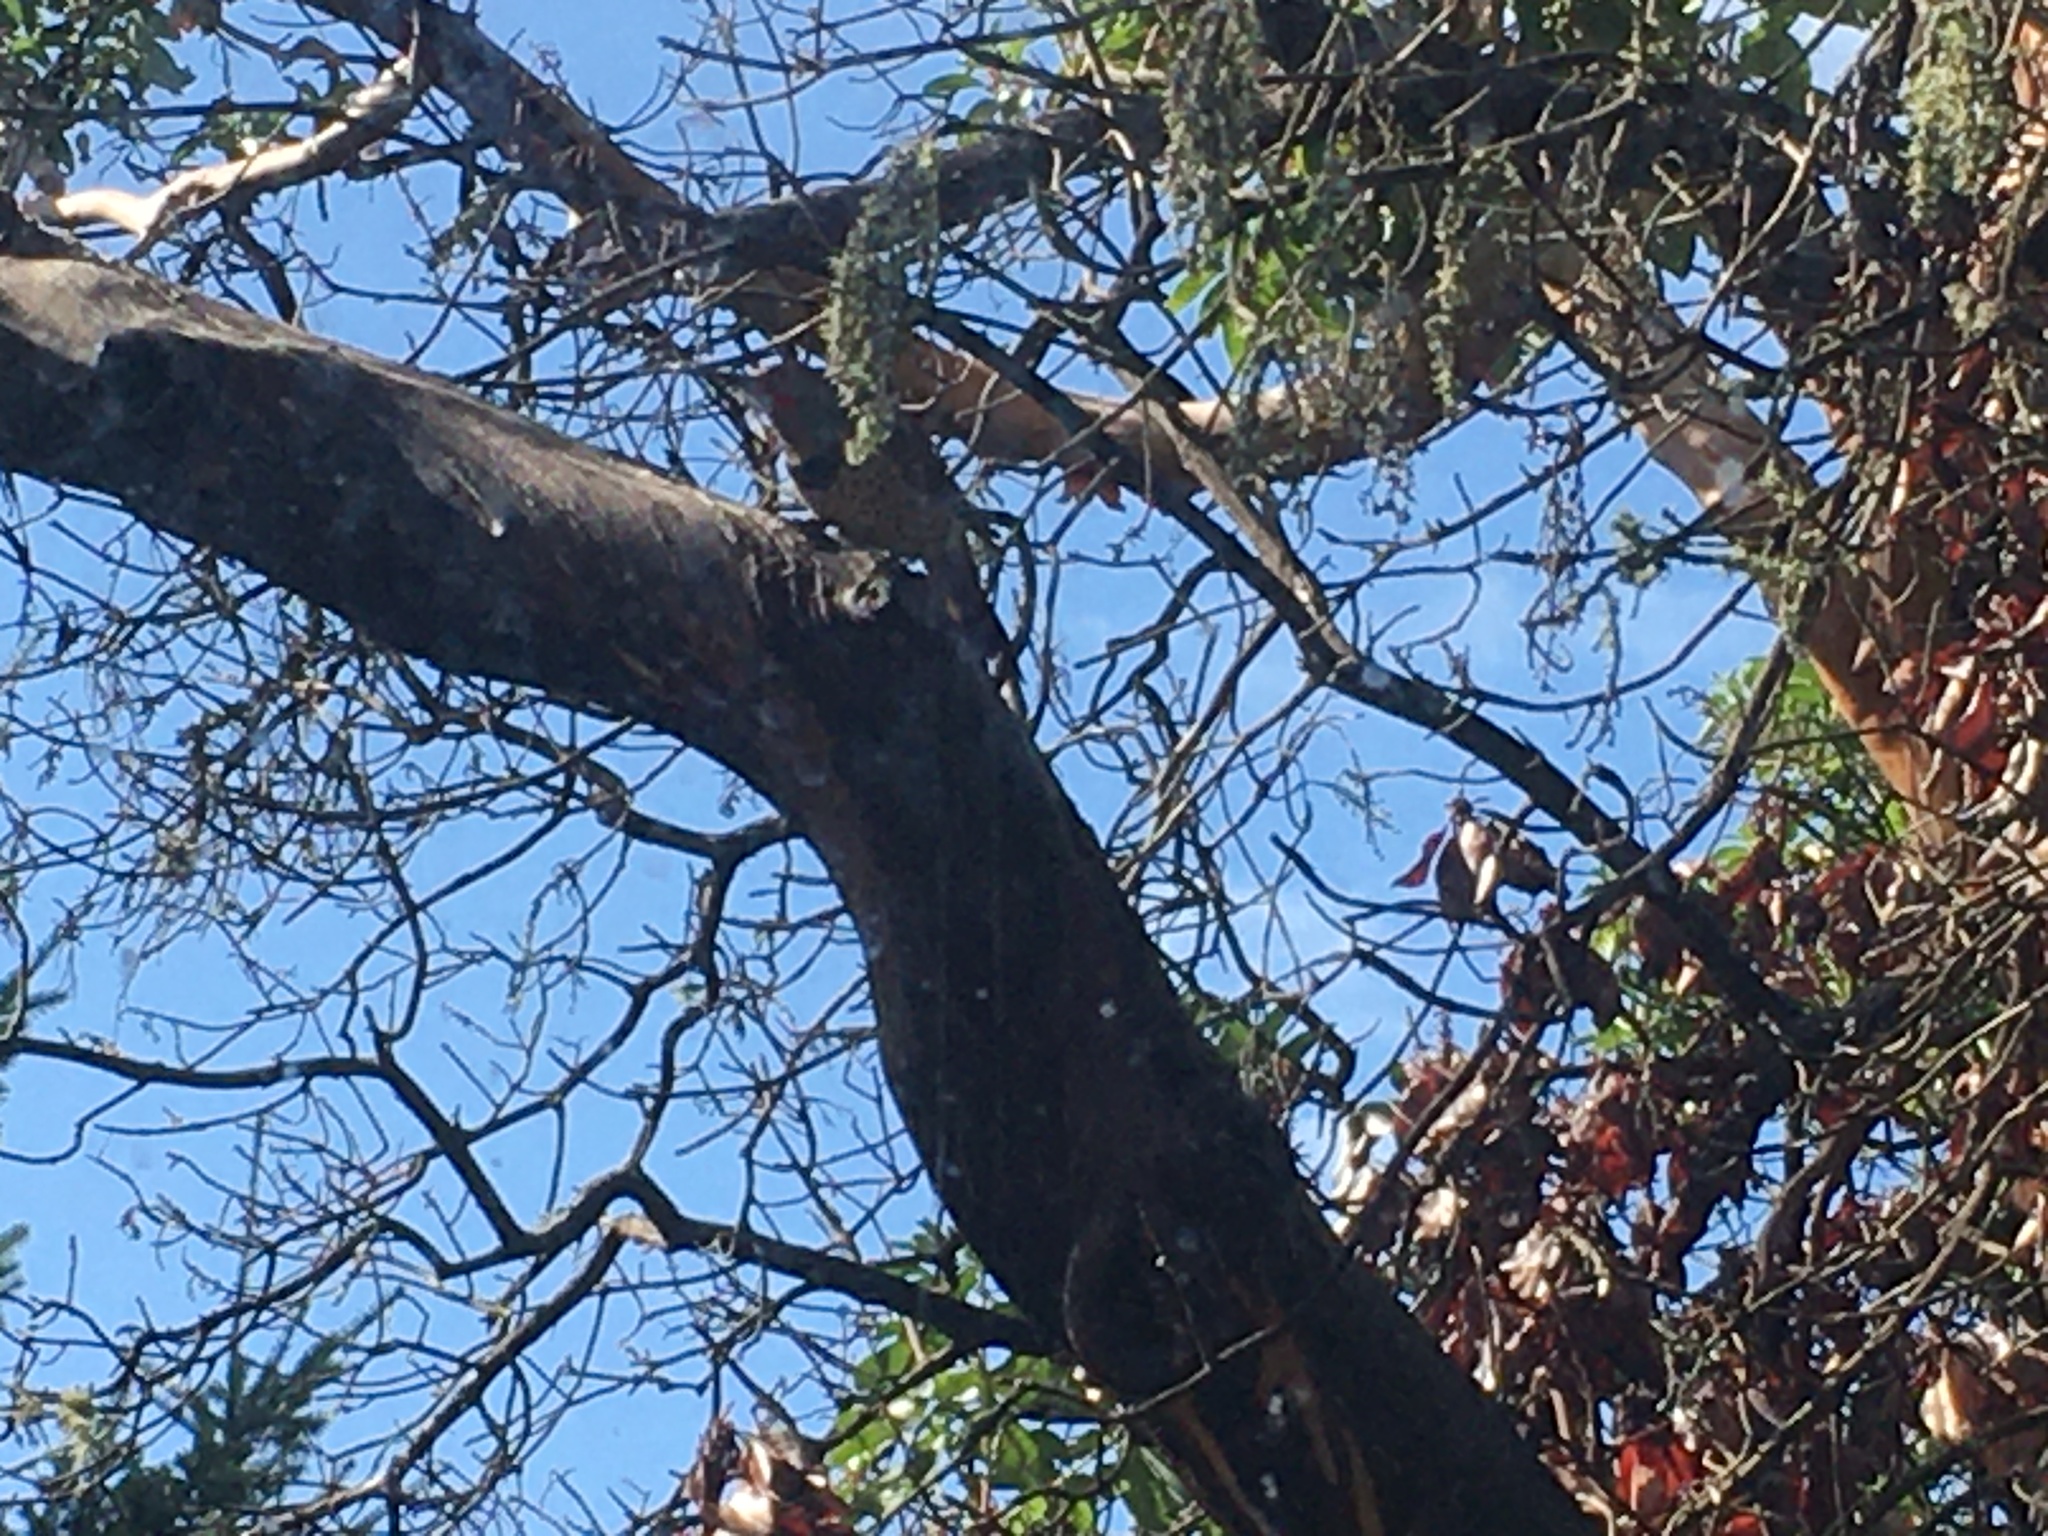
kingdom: Animalia
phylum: Chordata
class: Aves
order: Piciformes
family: Picidae
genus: Colaptes
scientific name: Colaptes auratus
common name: Northern flicker
